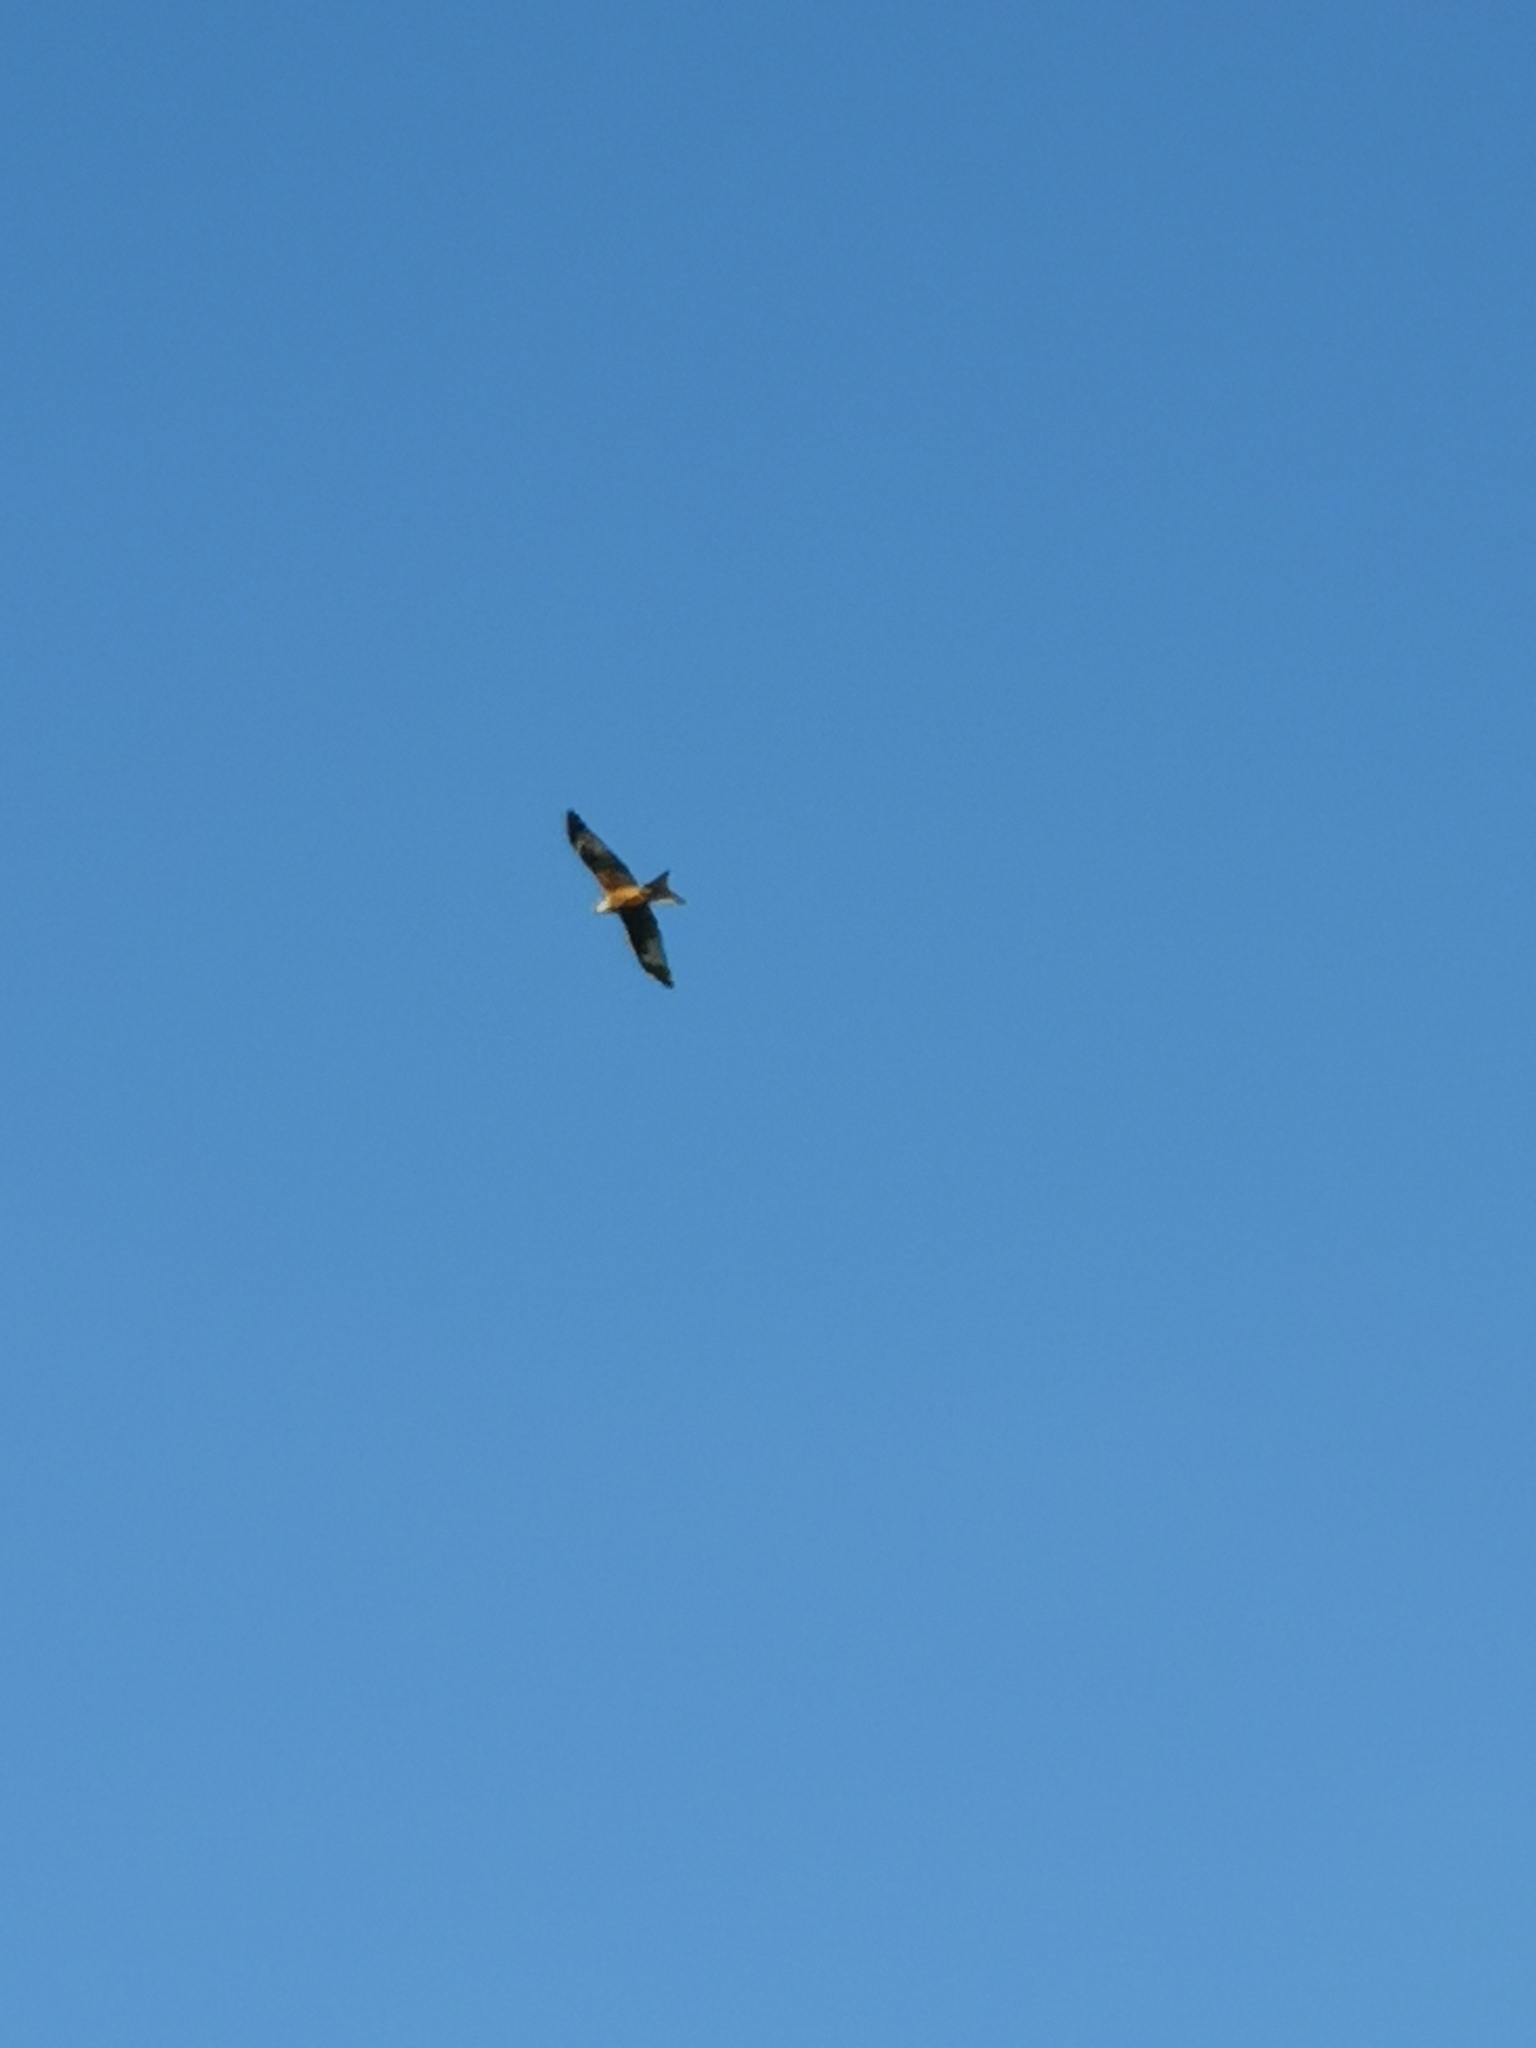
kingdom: Animalia
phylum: Chordata
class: Aves
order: Accipitriformes
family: Accipitridae
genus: Milvus
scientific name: Milvus milvus
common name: Red kite
